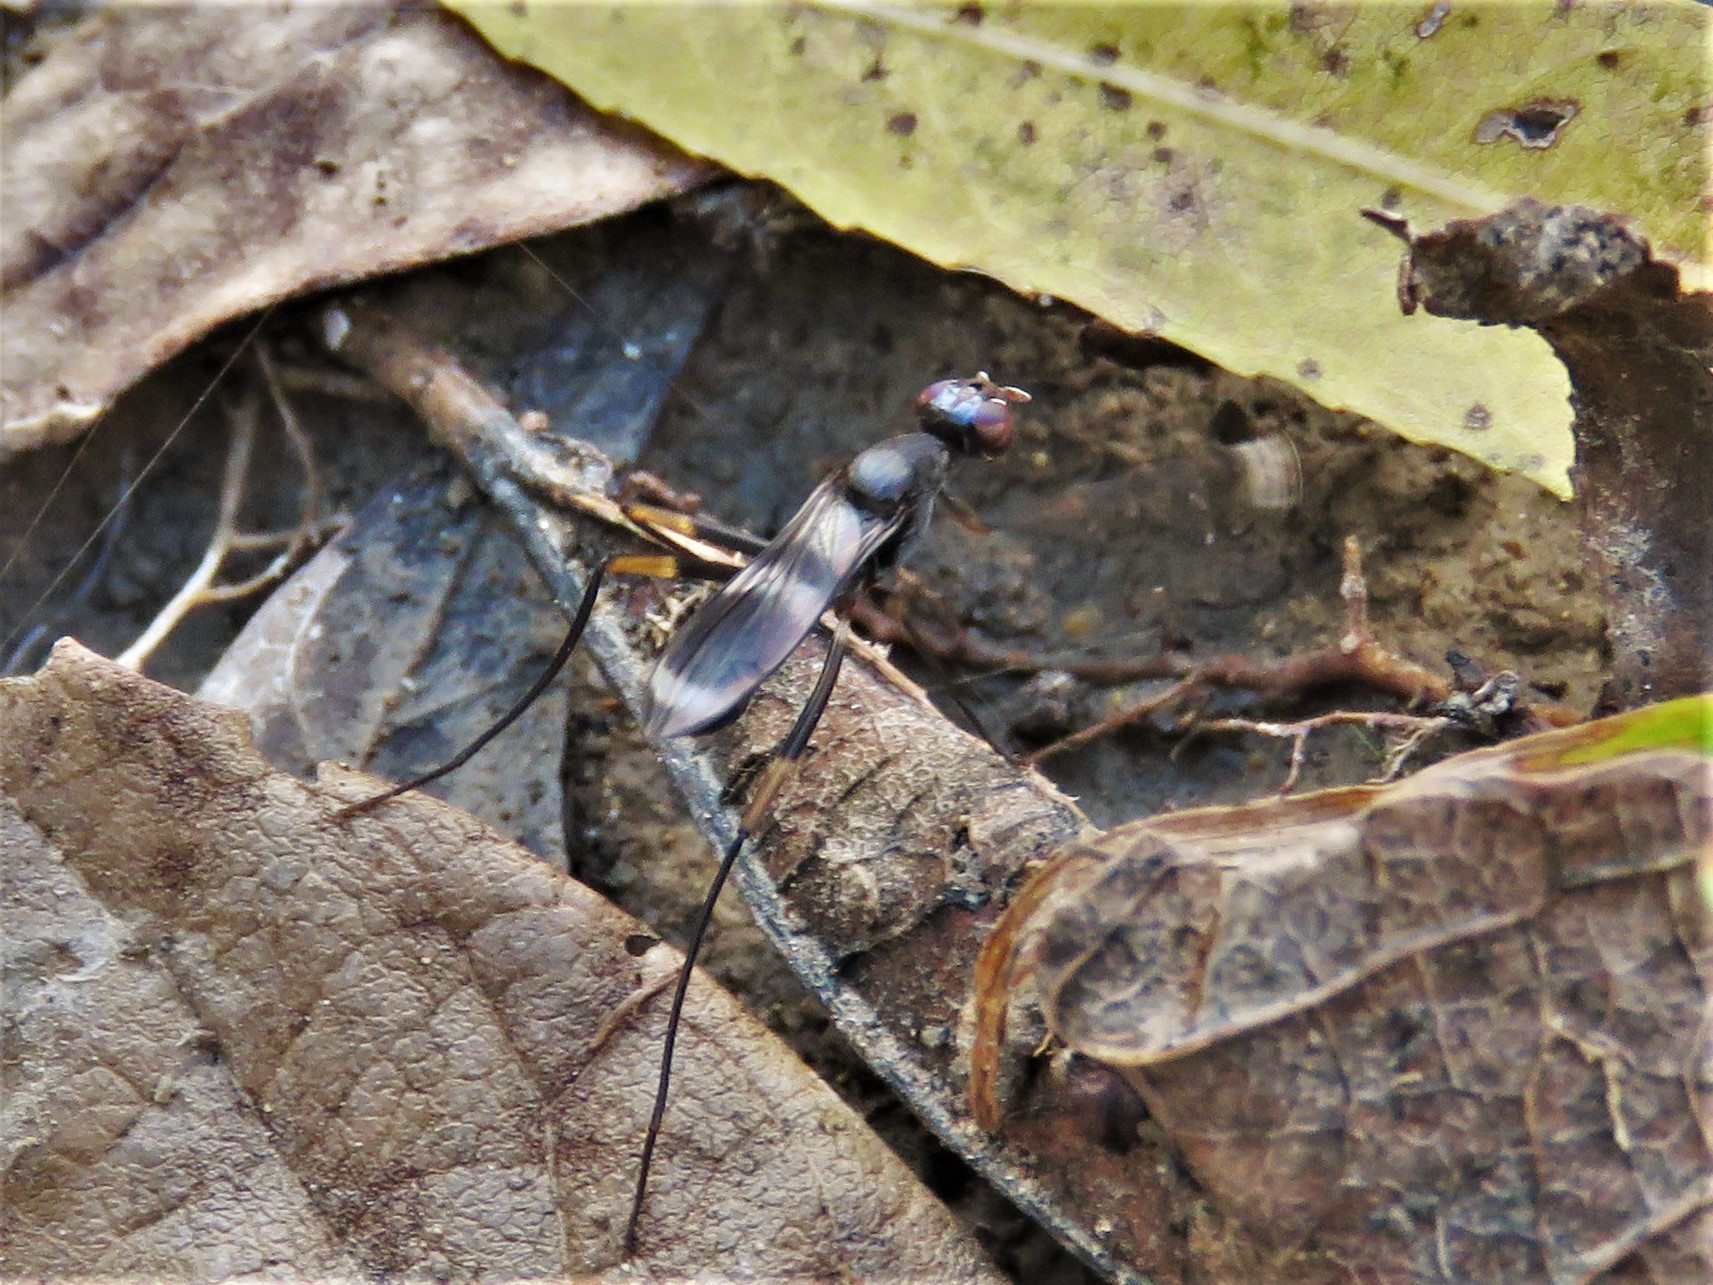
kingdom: Animalia
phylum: Arthropoda
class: Insecta
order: Diptera
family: Micropezidae
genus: Taeniaptera
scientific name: Taeniaptera trivittata
